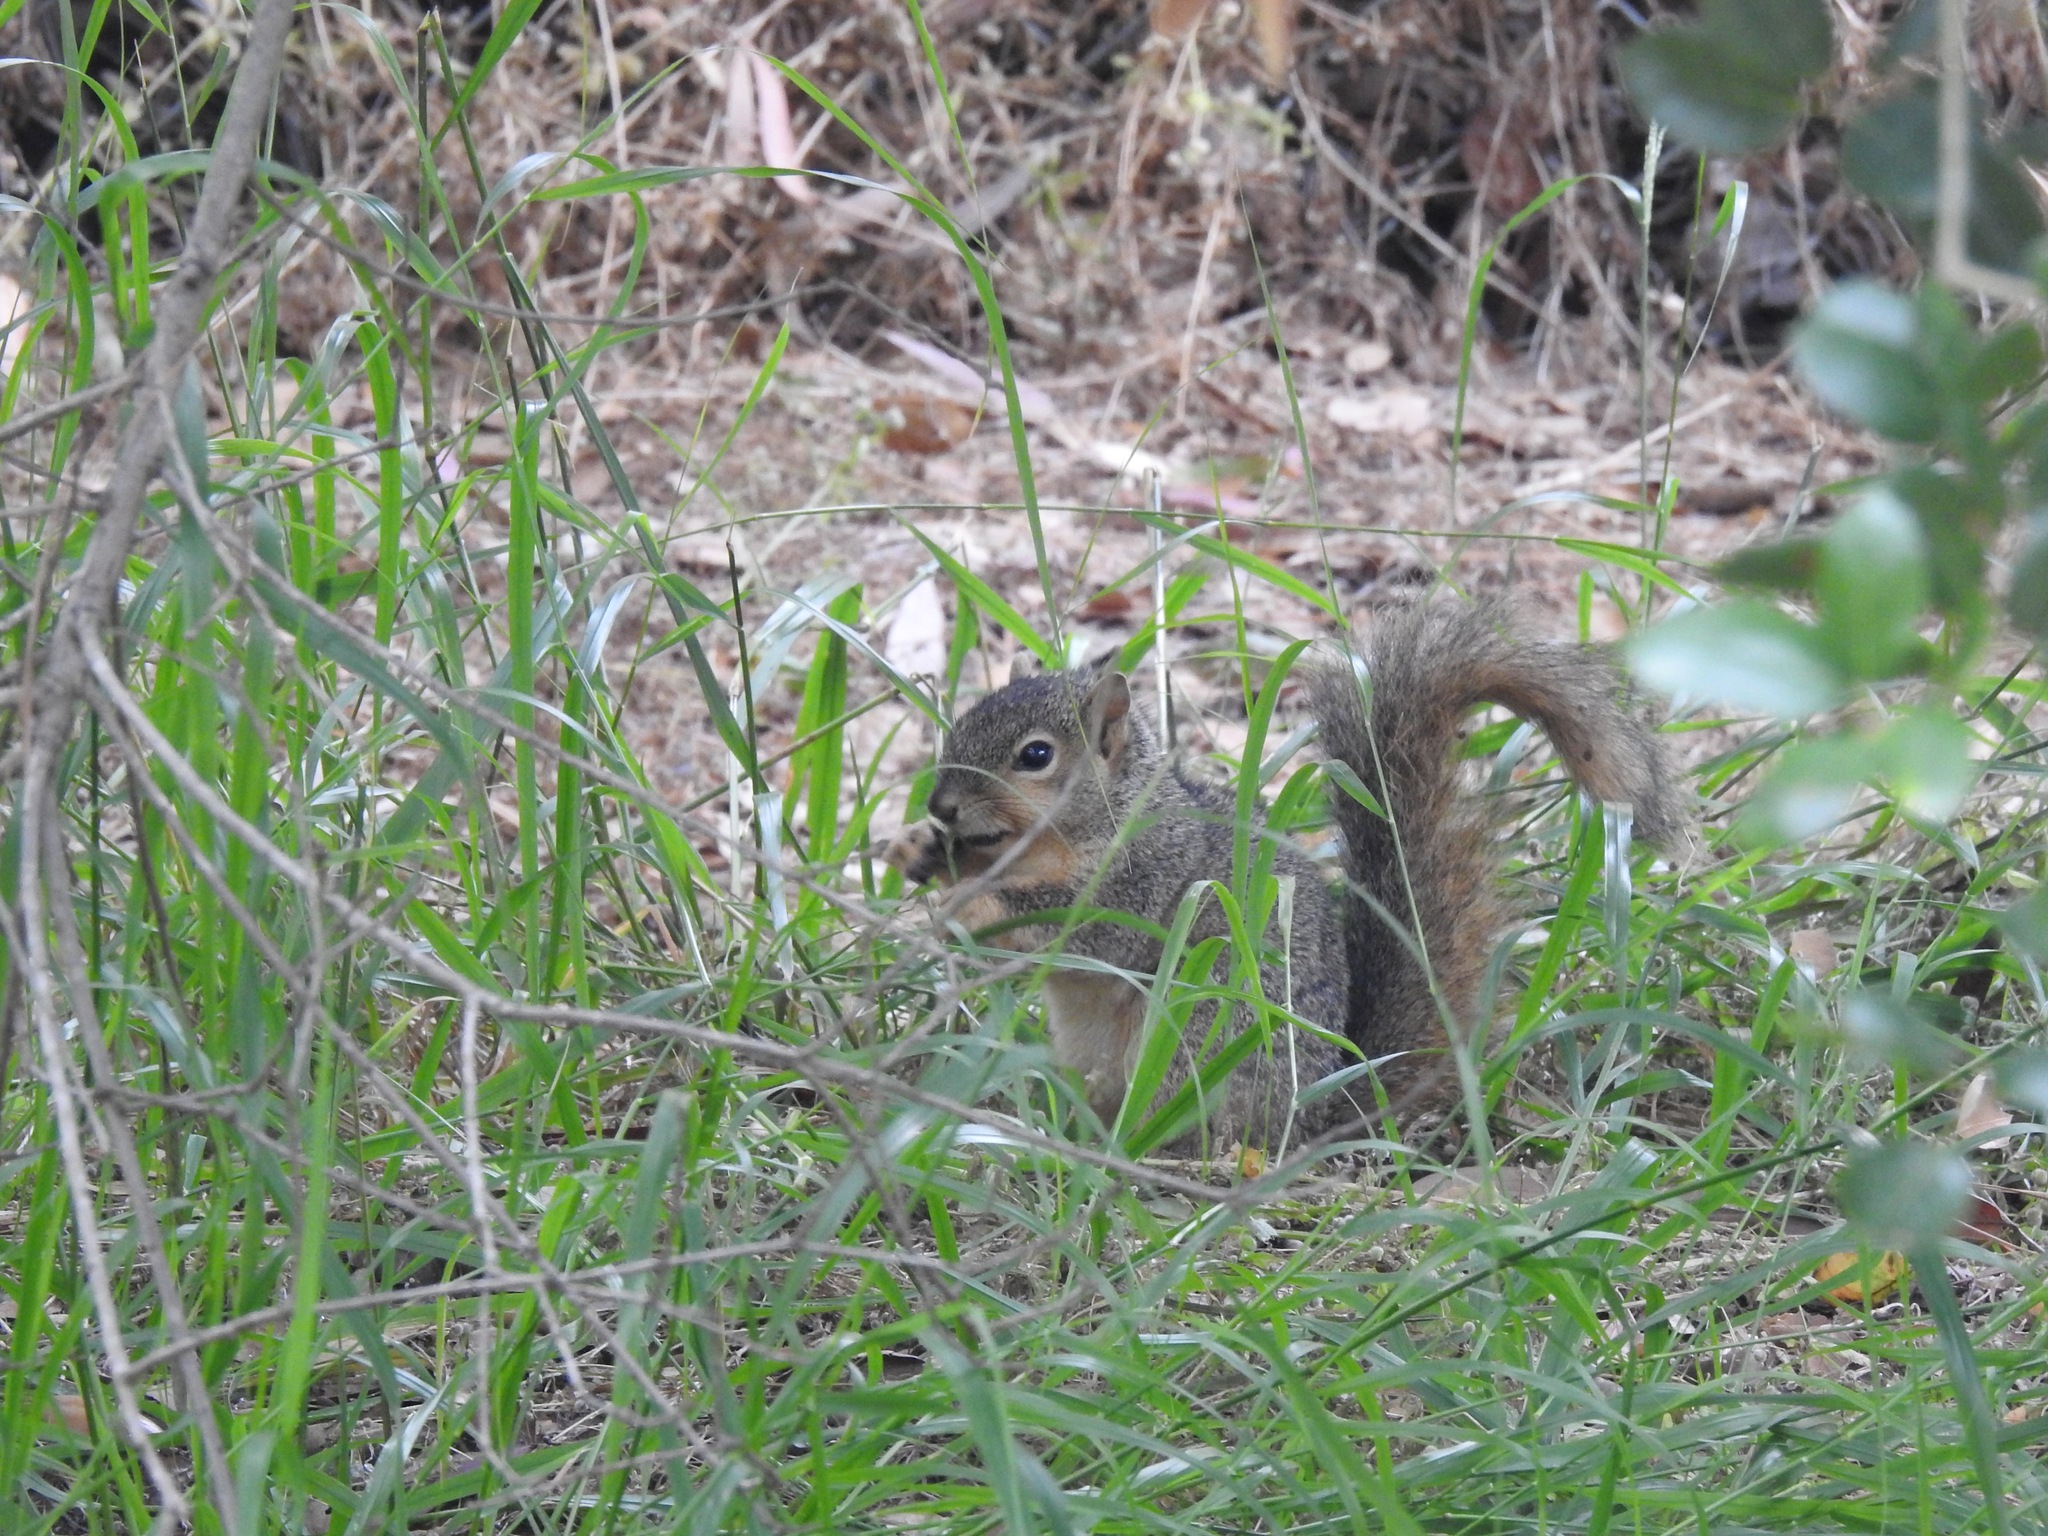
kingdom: Animalia
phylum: Chordata
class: Mammalia
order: Rodentia
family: Sciuridae
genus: Sciurus
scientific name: Sciurus niger
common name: Fox squirrel
